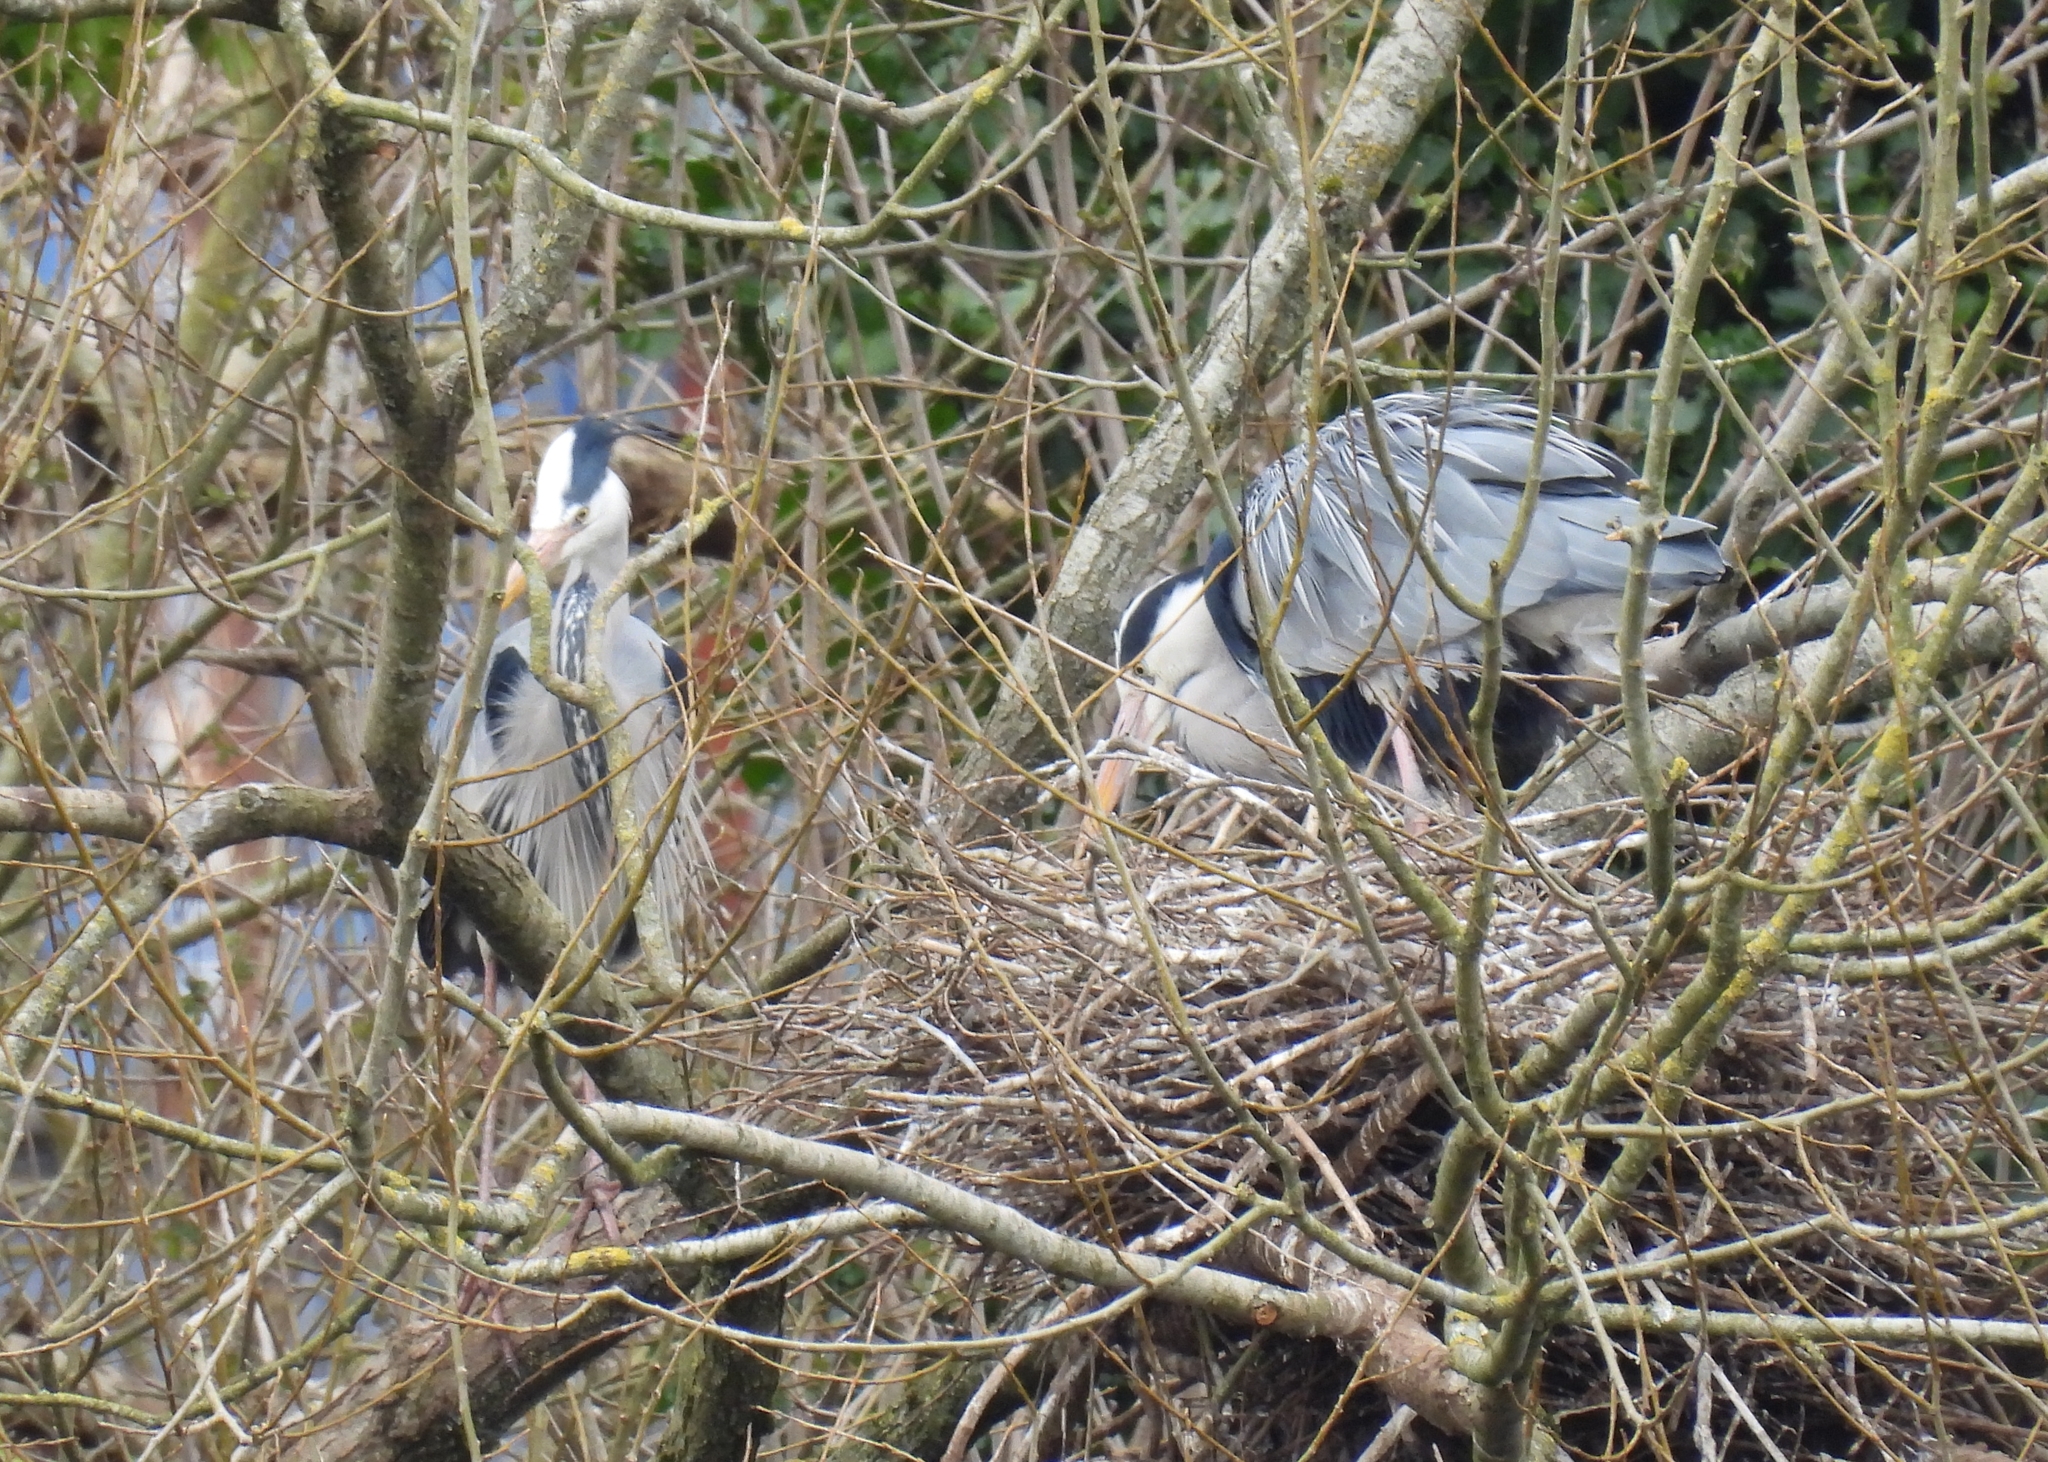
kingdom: Animalia
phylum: Chordata
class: Aves
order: Pelecaniformes
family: Ardeidae
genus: Ardea
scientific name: Ardea cinerea
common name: Grey heron
